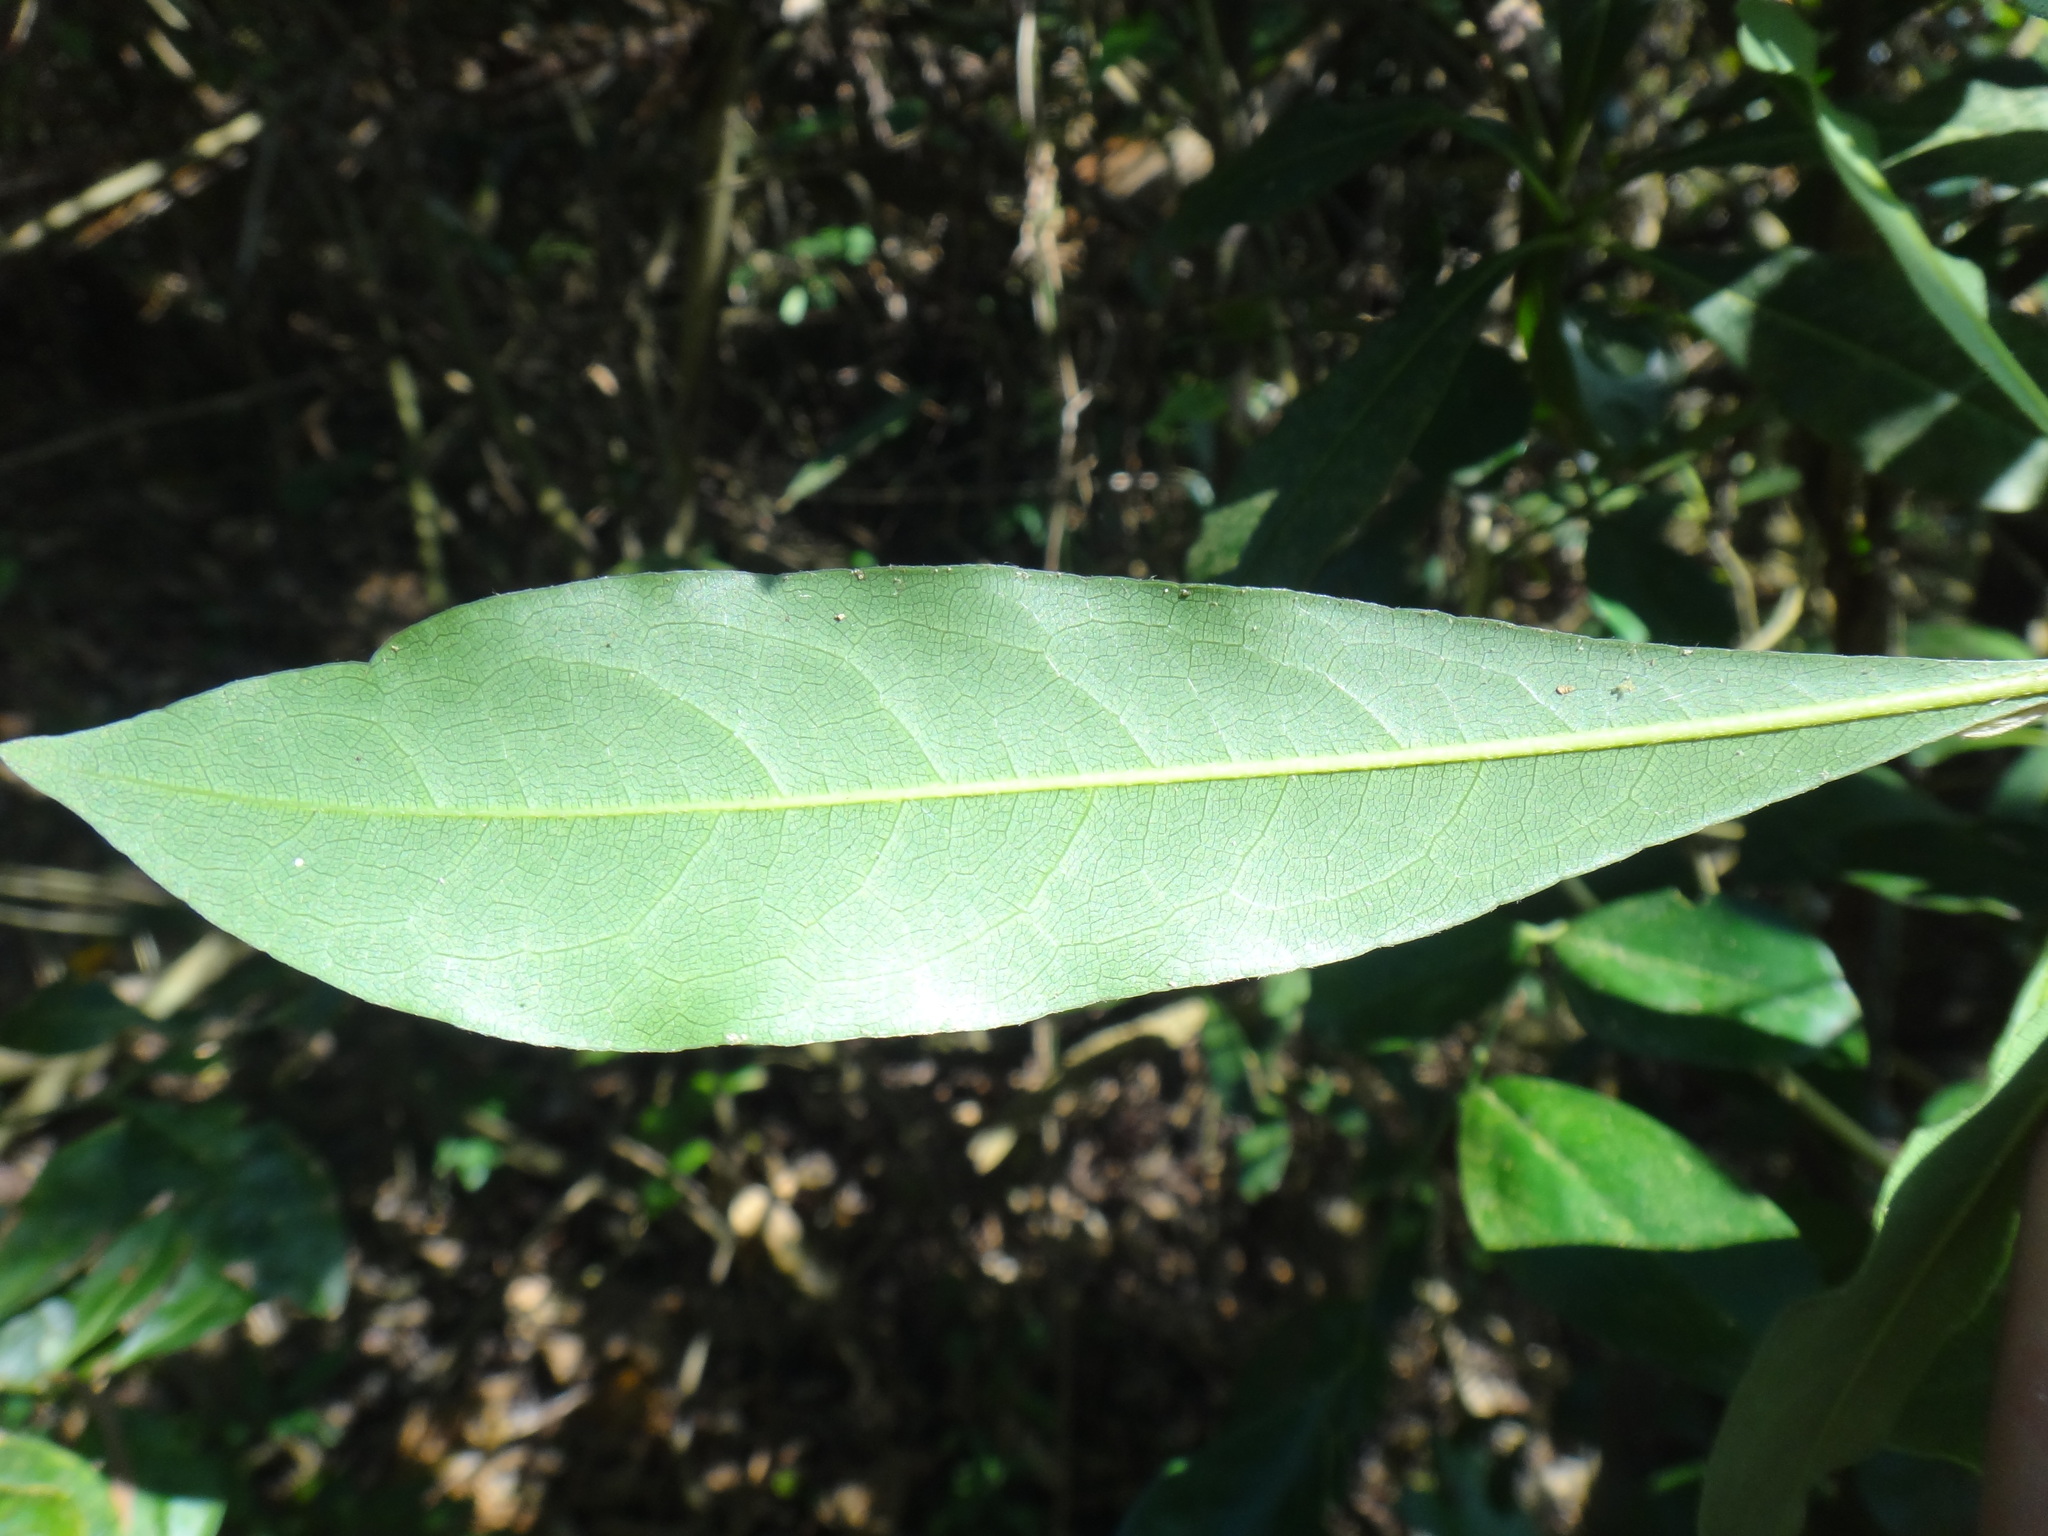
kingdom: Plantae
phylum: Tracheophyta
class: Magnoliopsida
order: Apiales
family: Pittosporaceae
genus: Pittosporum
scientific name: Pittosporum pentandrum
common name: Taiwanese cheesewood
